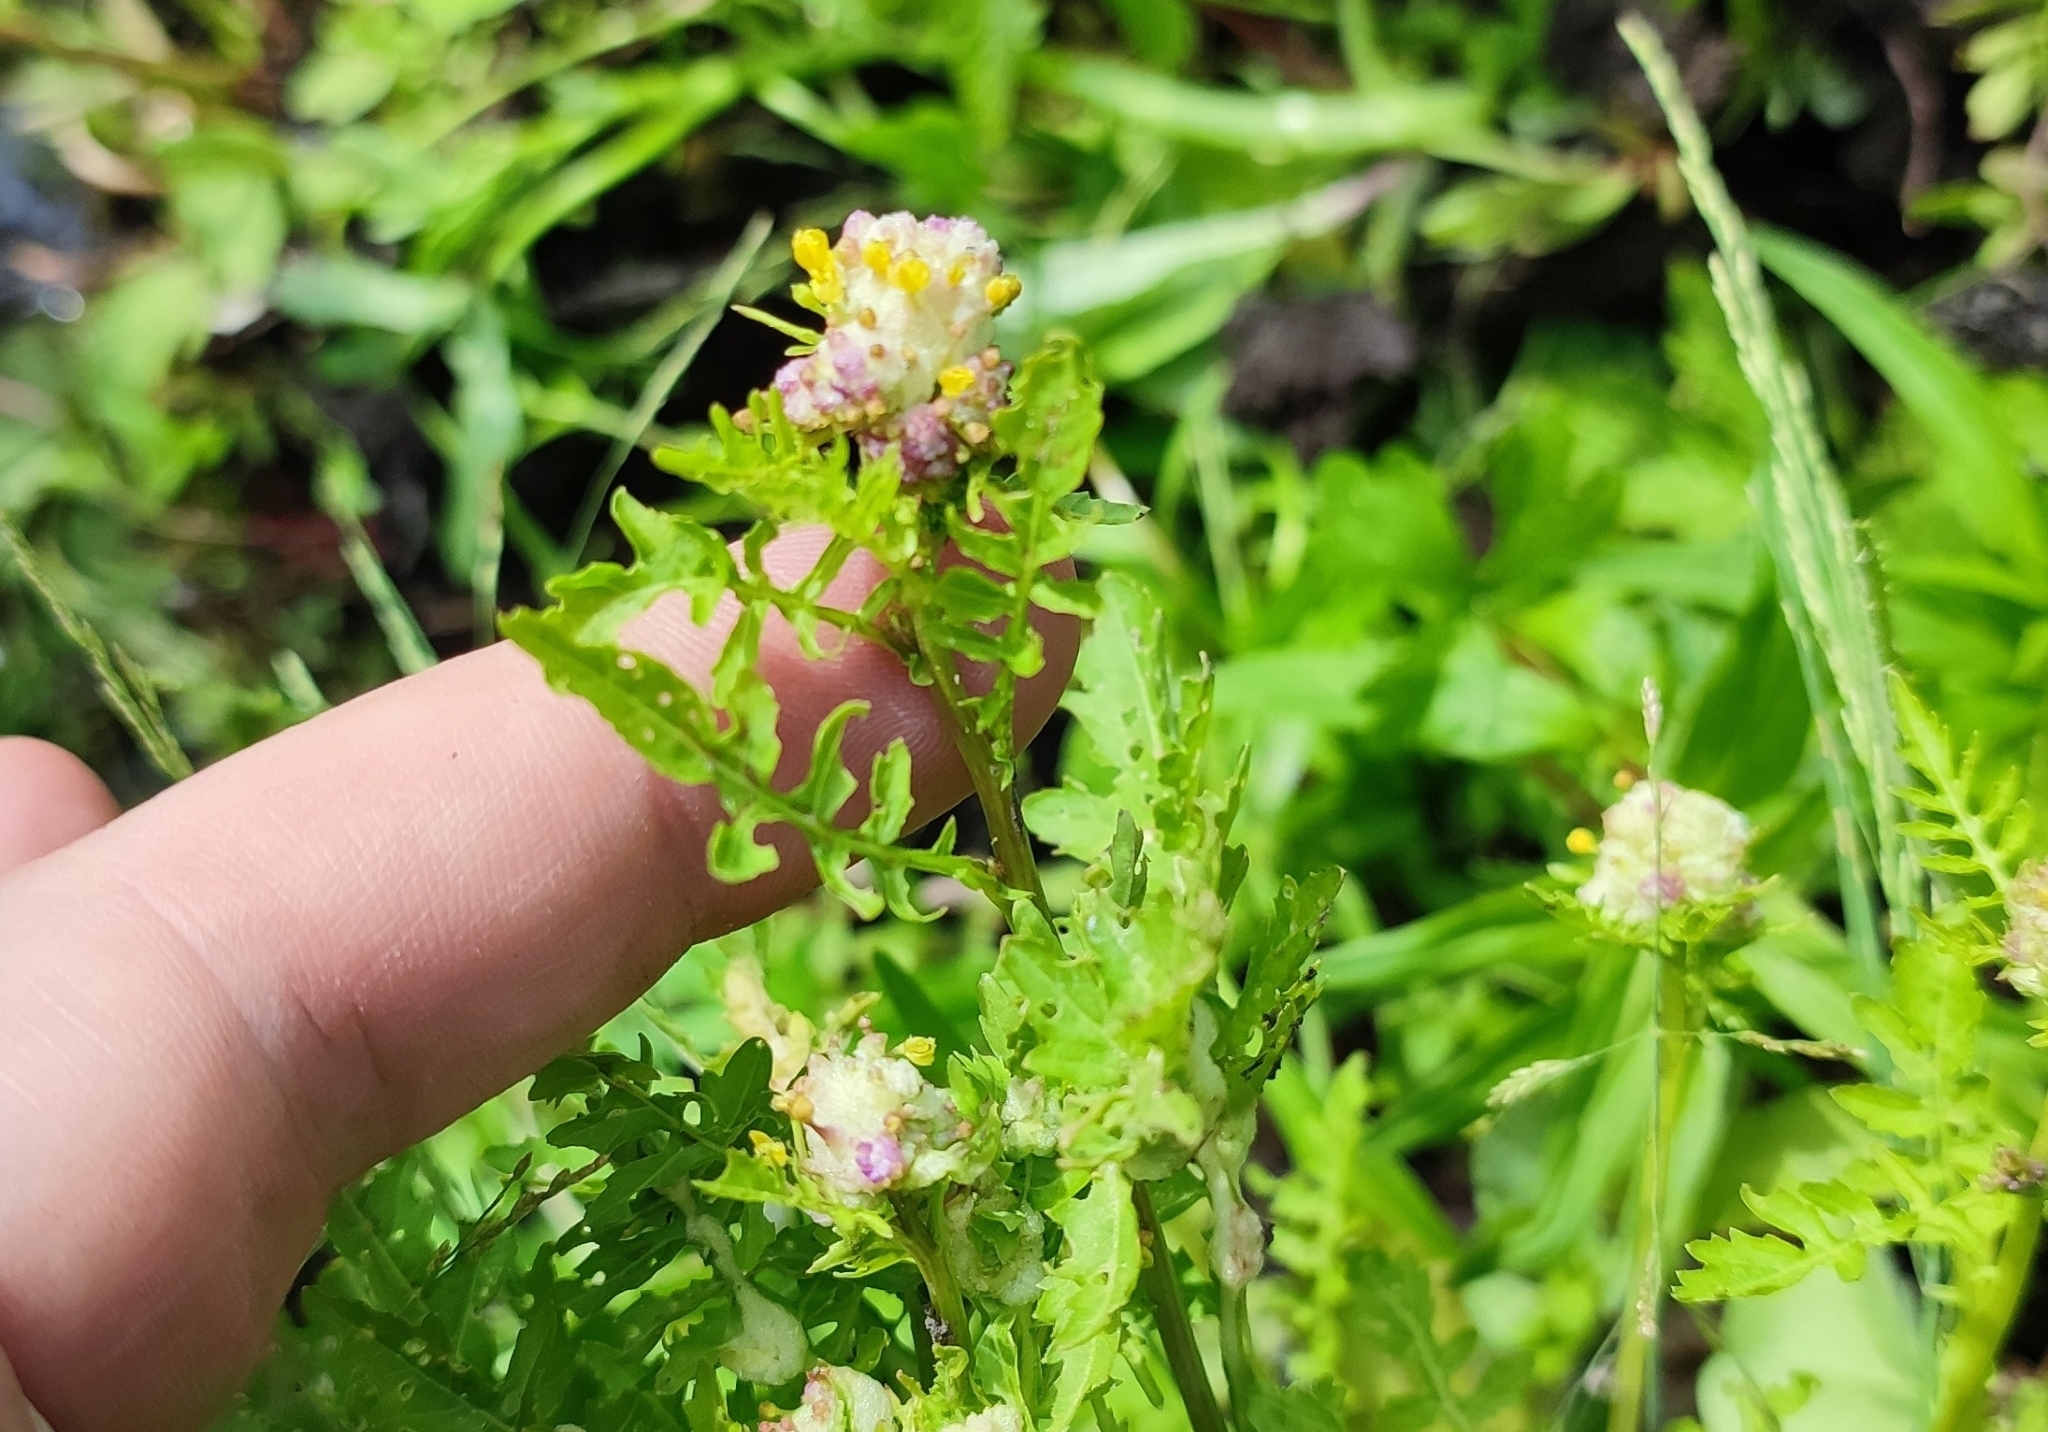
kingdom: Plantae
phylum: Tracheophyta
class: Magnoliopsida
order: Brassicales
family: Brassicaceae
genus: Rorippa
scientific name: Rorippa palustris
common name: Marsh yellow-cress
